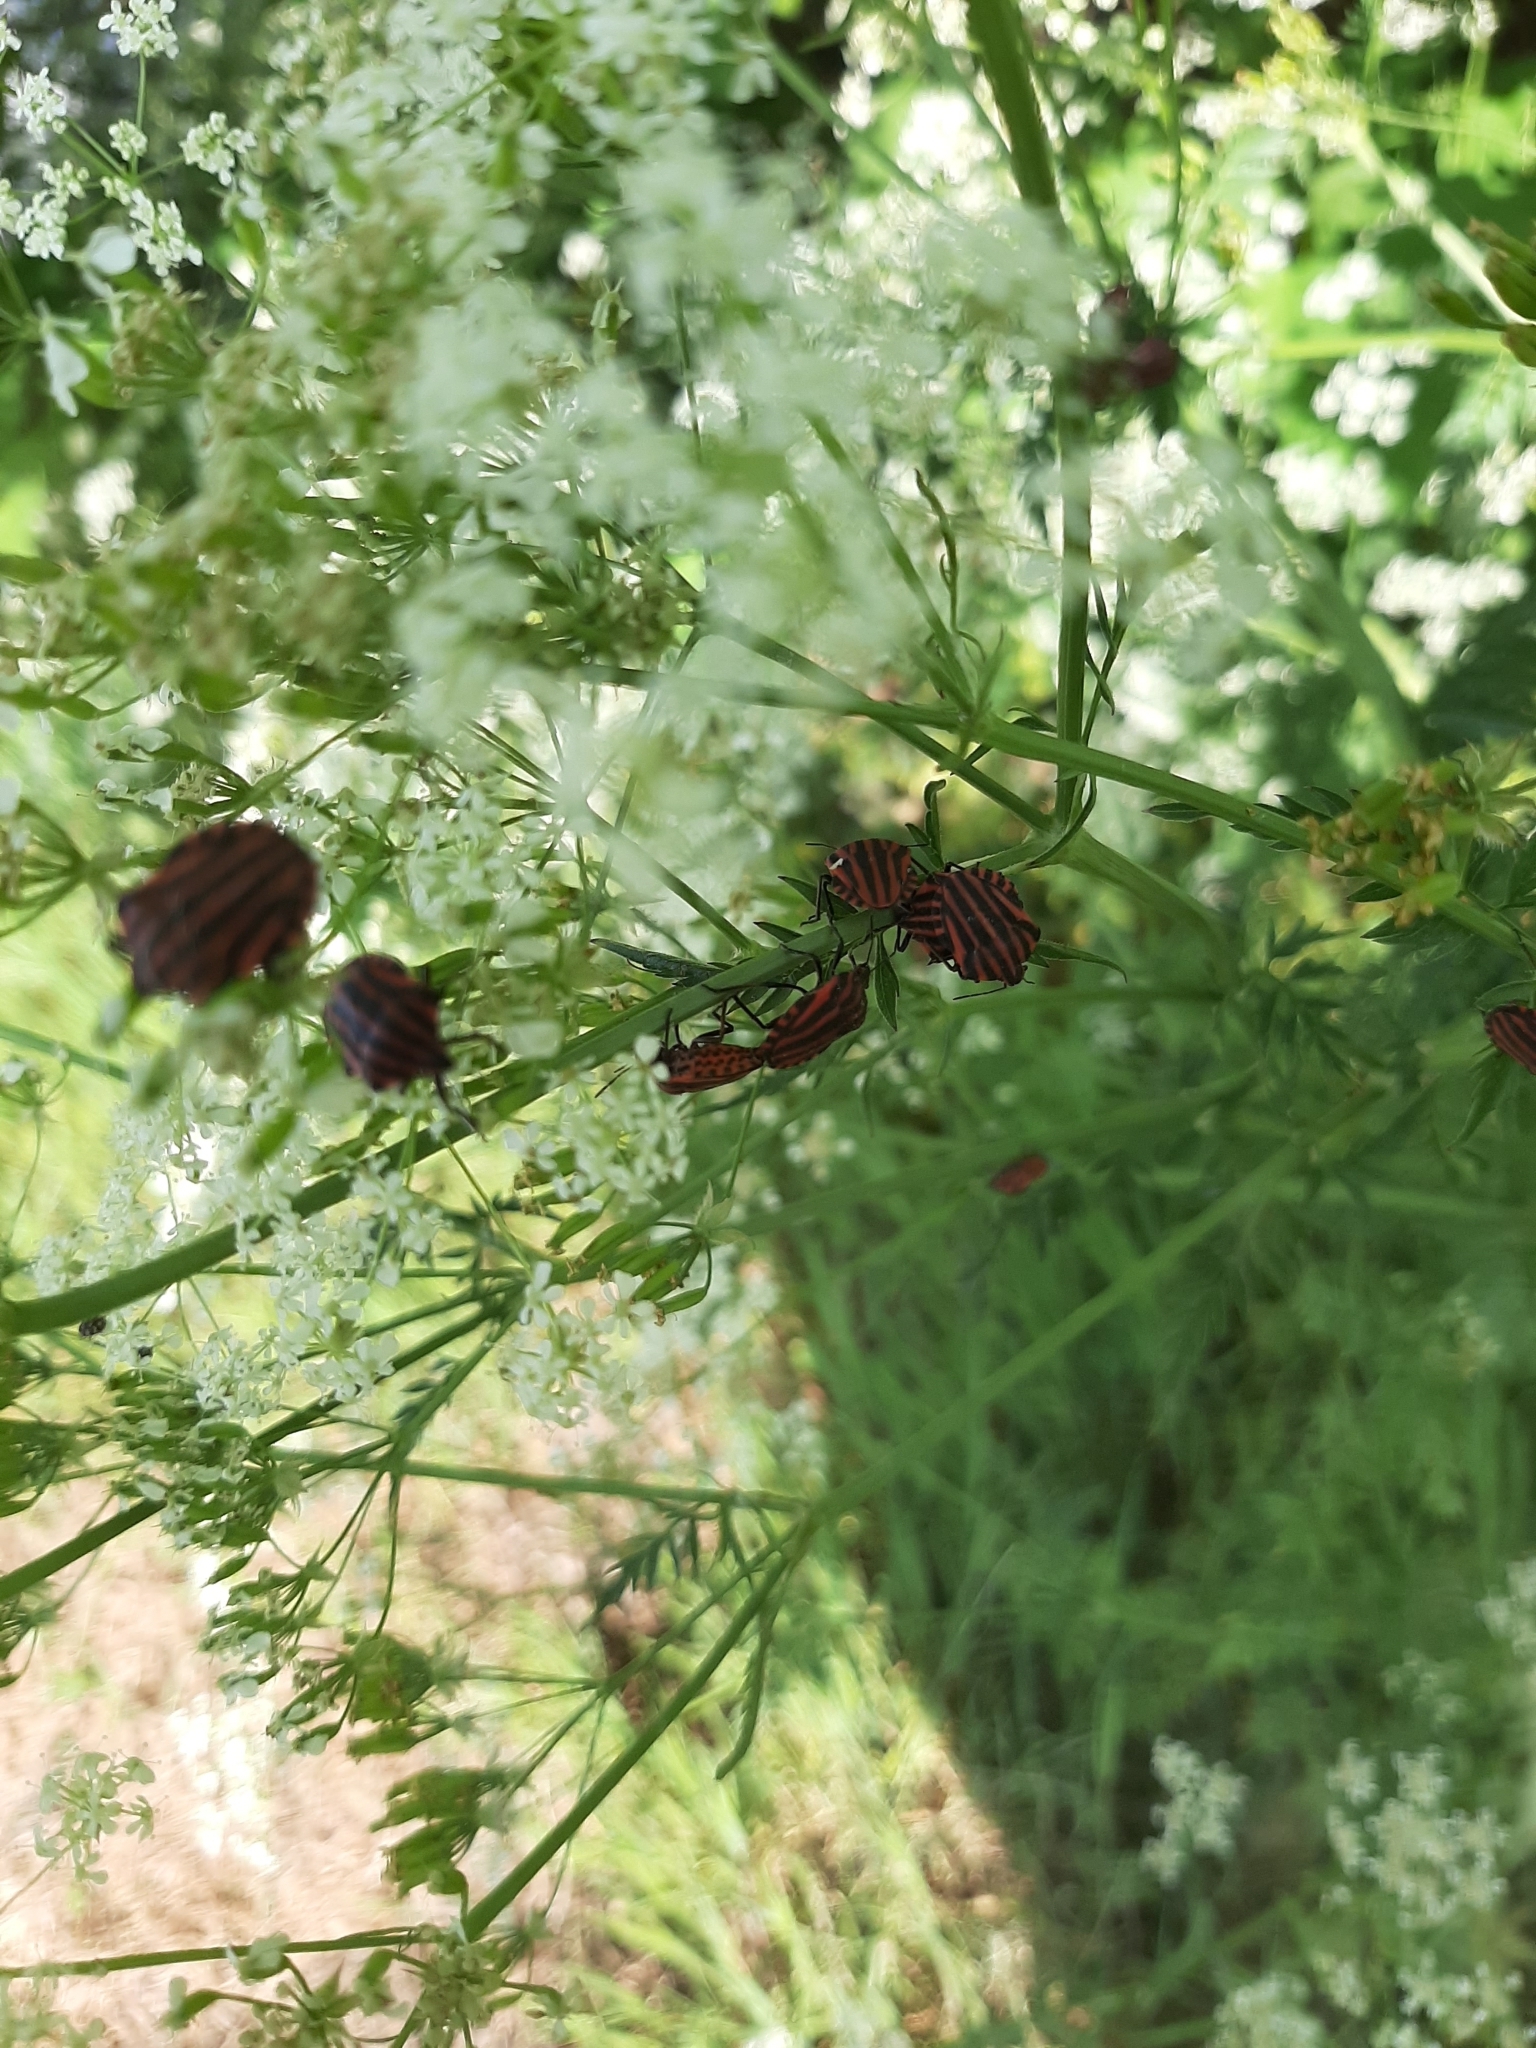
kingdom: Animalia
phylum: Arthropoda
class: Insecta
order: Hemiptera
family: Pentatomidae
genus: Graphosoma
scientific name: Graphosoma italicum
